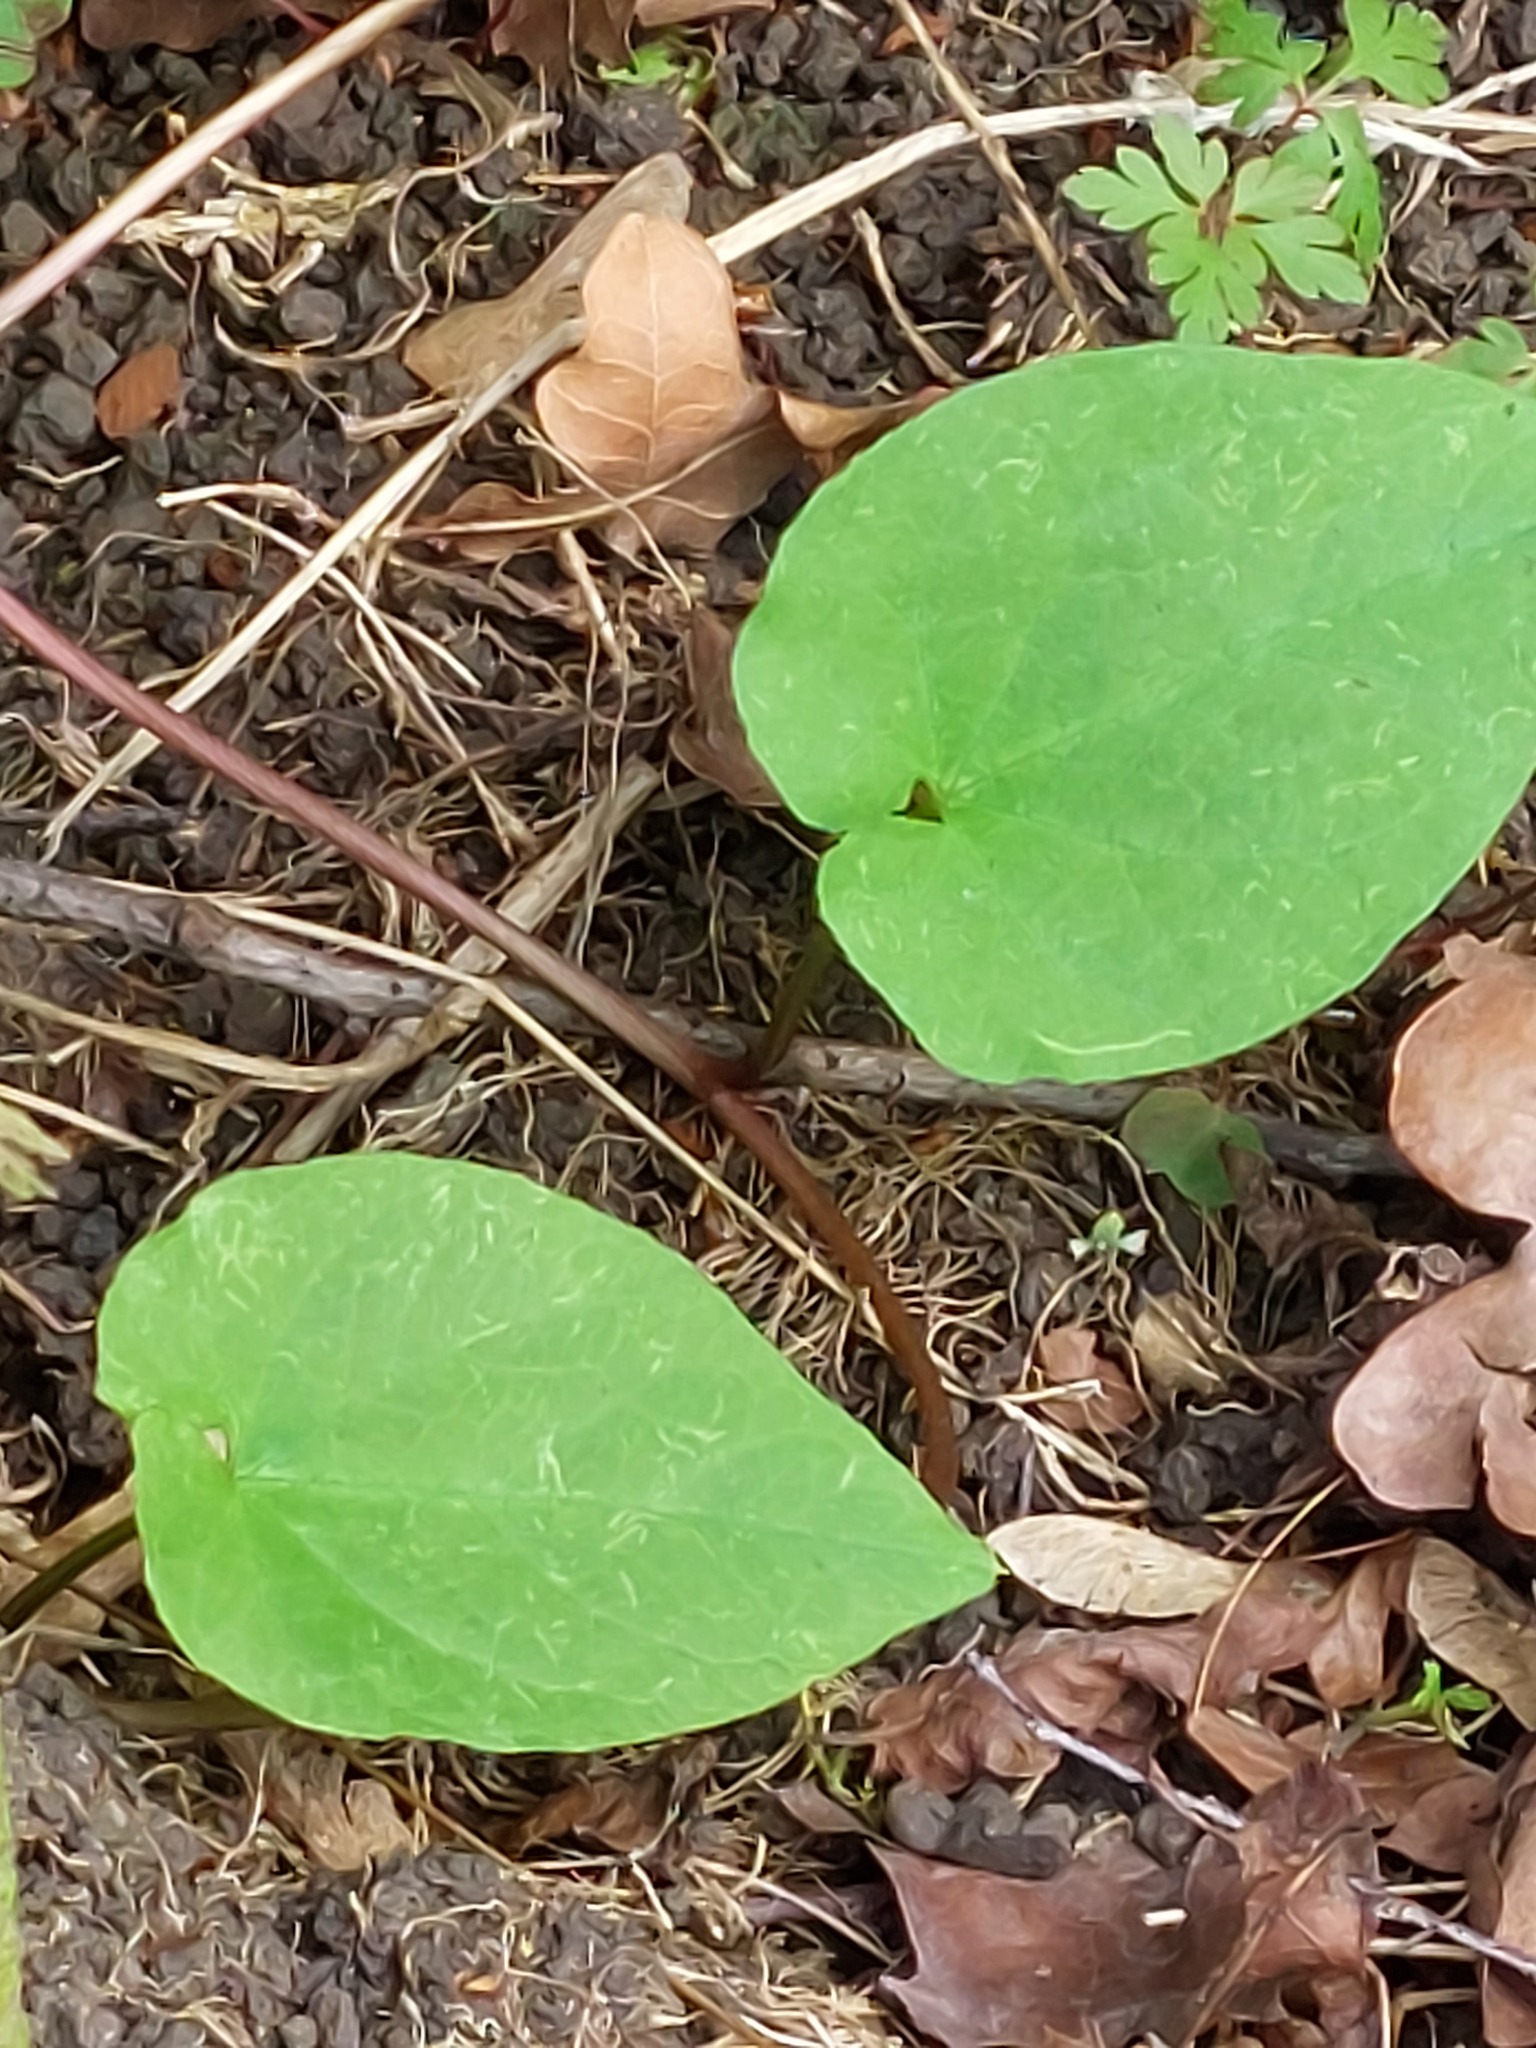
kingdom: Plantae
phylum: Tracheophyta
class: Magnoliopsida
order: Solanales
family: Convolvulaceae
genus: Calystegia
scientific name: Calystegia silvatica
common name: Large bindweed
